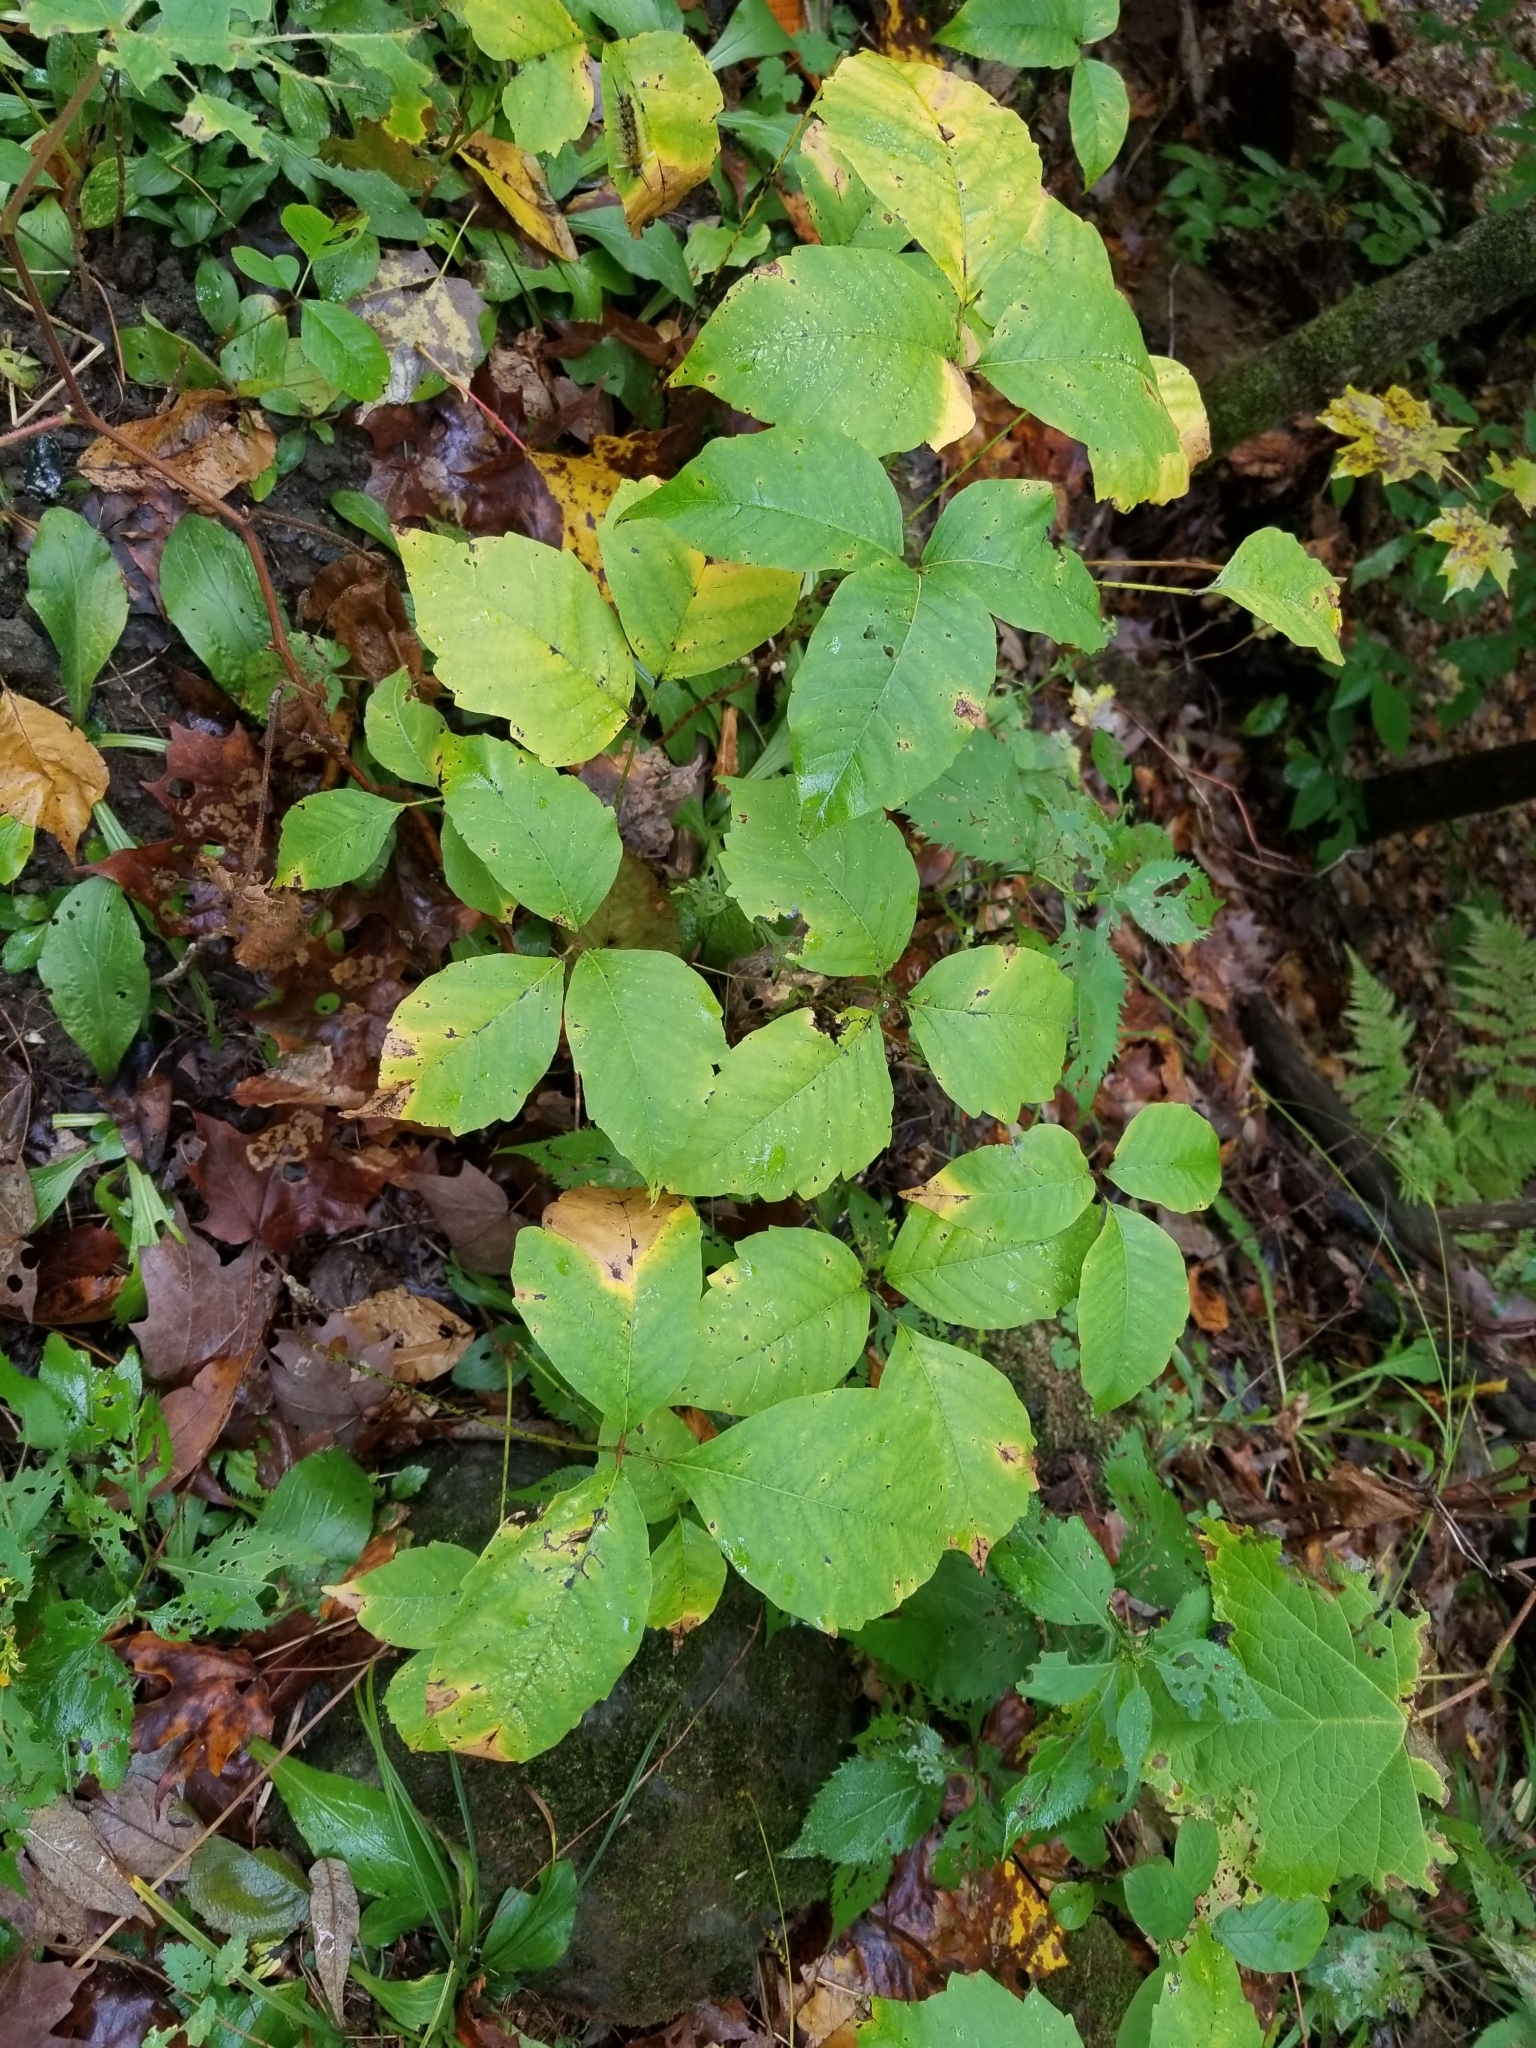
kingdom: Plantae
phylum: Tracheophyta
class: Magnoliopsida
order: Sapindales
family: Anacardiaceae
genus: Toxicodendron
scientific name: Toxicodendron radicans
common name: Poison ivy
